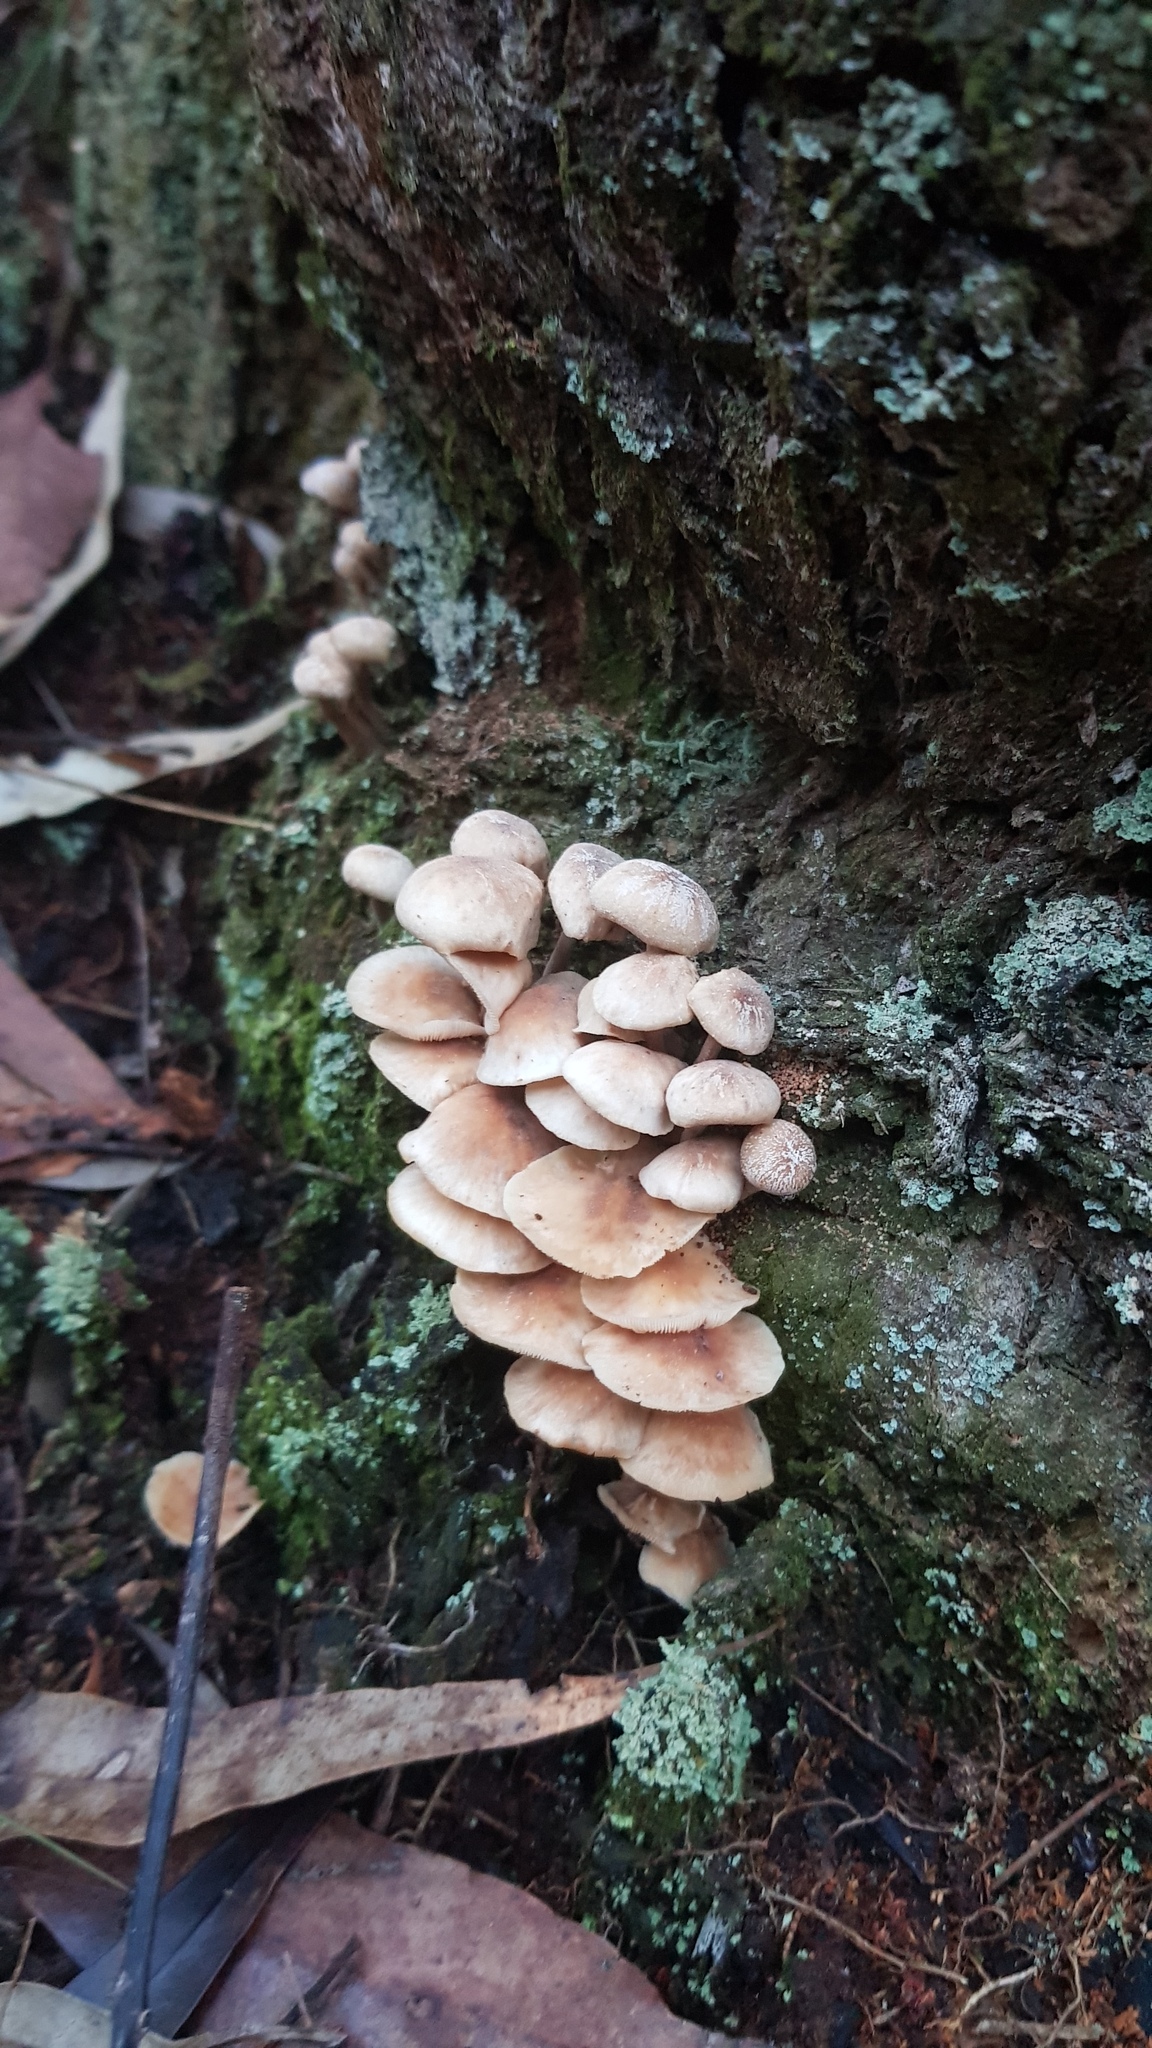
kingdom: Fungi
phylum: Basidiomycota
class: Agaricomycetes
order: Agaricales
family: Omphalotaceae
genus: Rhodocollybia
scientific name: Rhodocollybia
